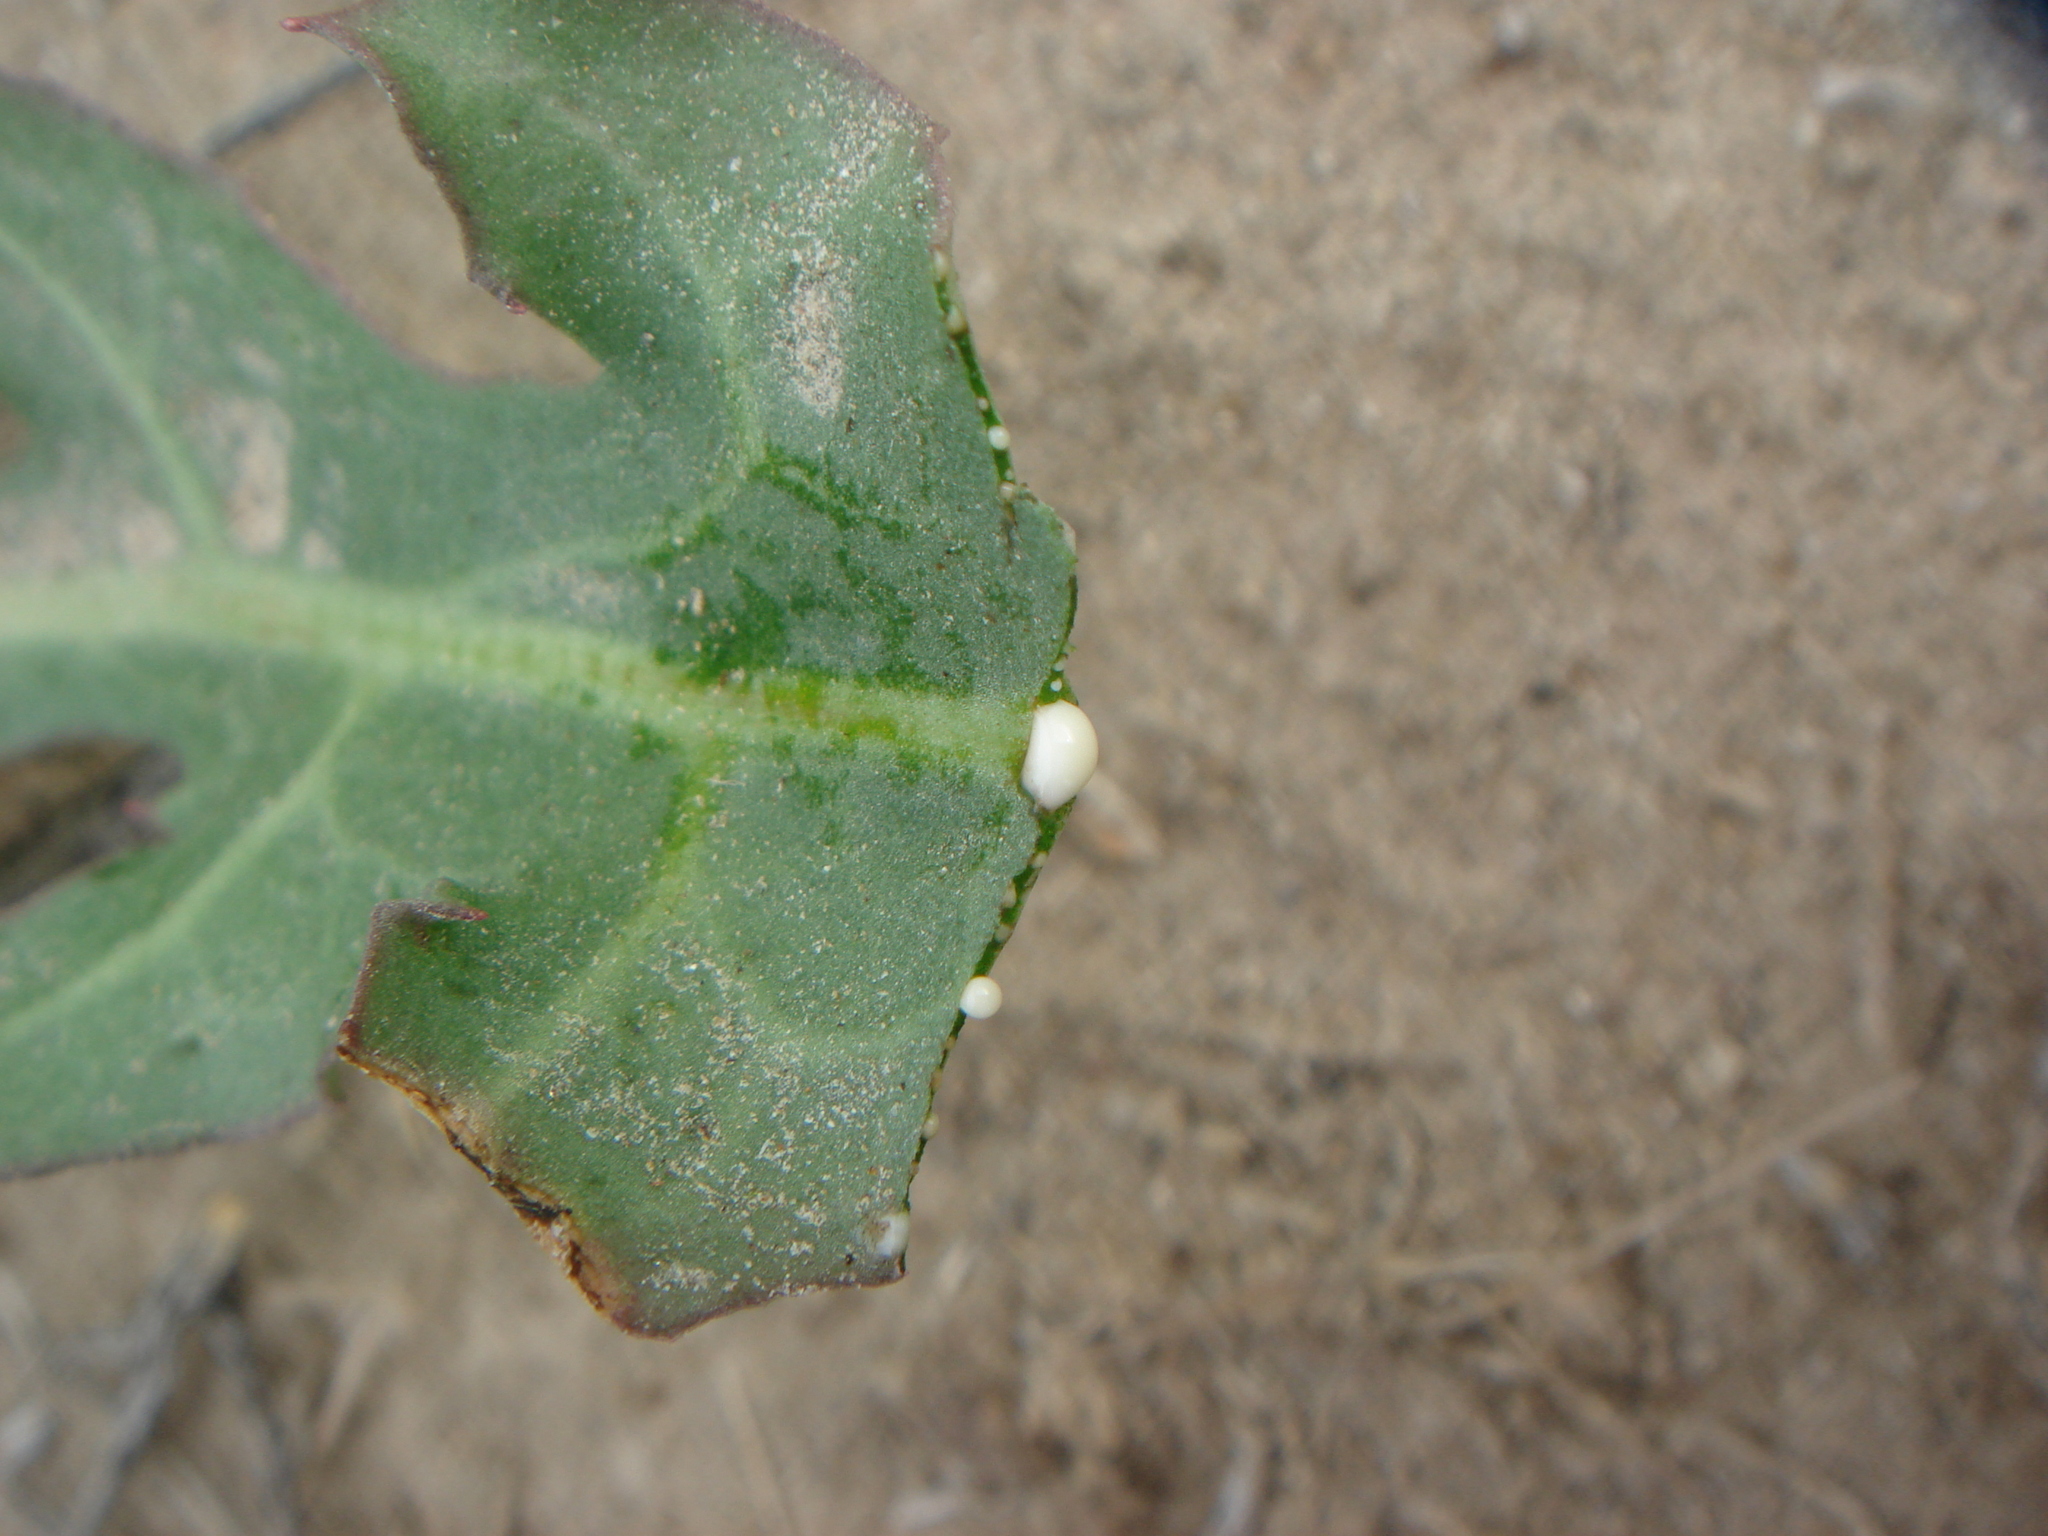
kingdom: Plantae
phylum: Tracheophyta
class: Magnoliopsida
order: Asterales
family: Asteraceae
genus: Rafinesquia
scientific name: Rafinesquia neomexicana
